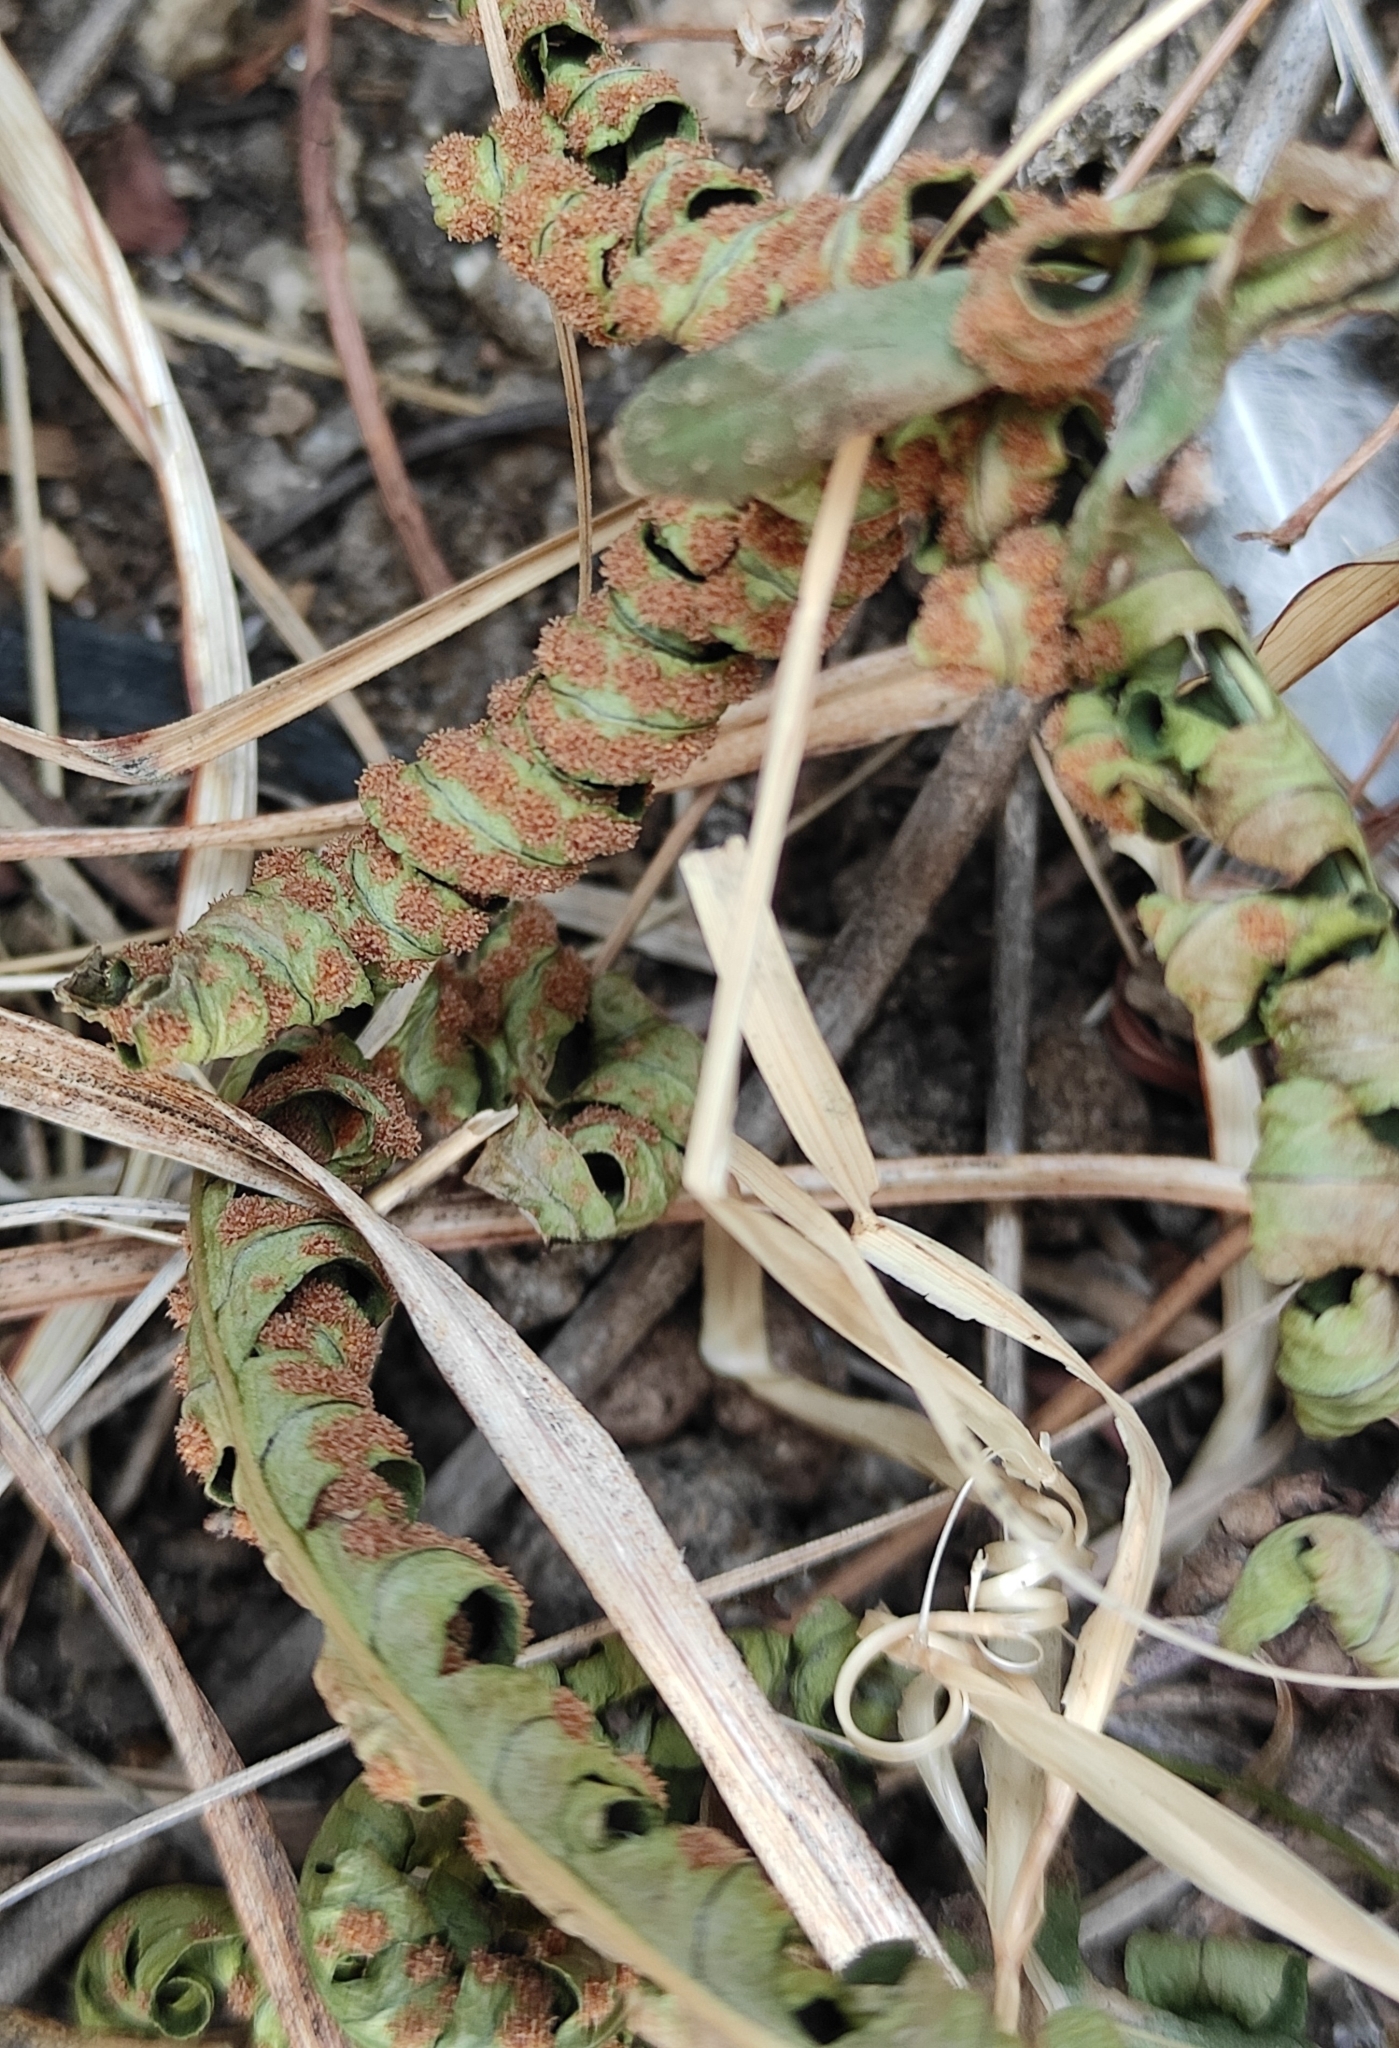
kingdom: Plantae
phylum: Tracheophyta
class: Polypodiopsida
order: Polypodiales
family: Polypodiaceae
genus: Polypodium
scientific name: Polypodium sibiricum
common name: Siberian polypody
